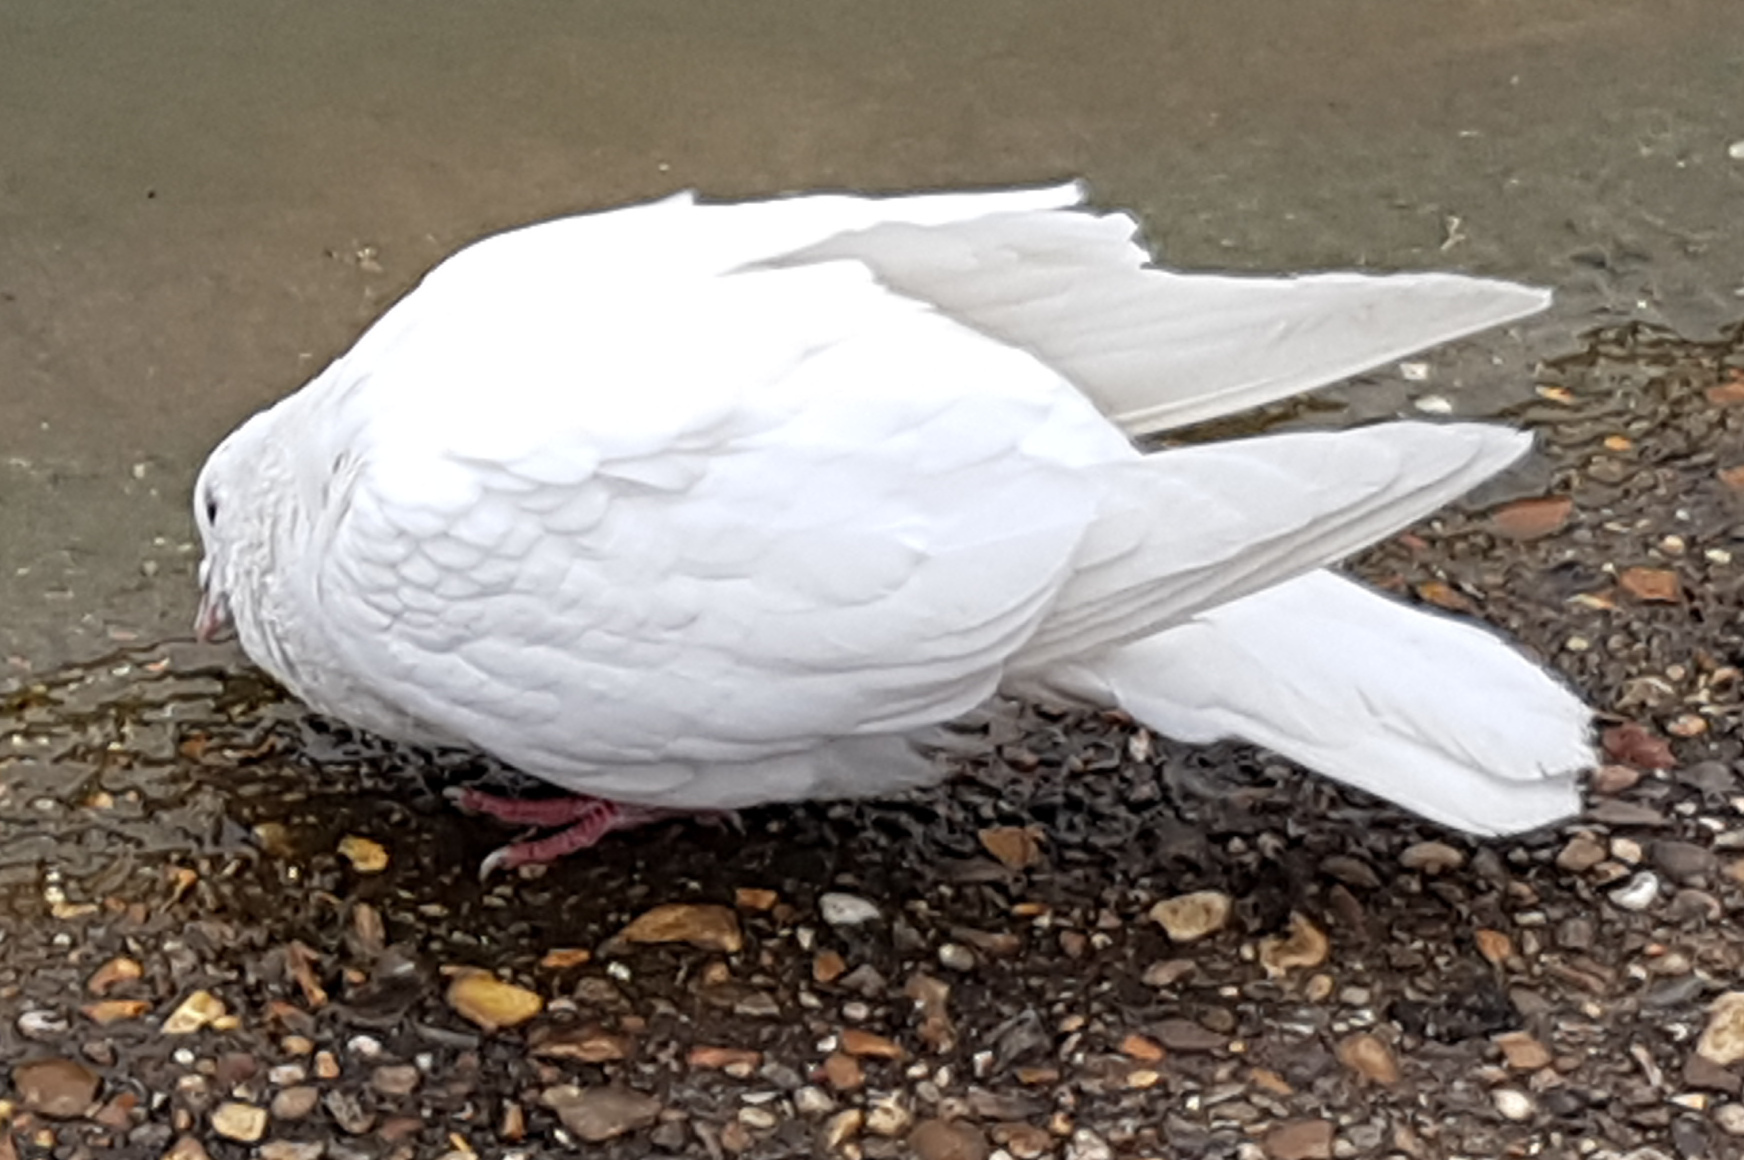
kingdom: Animalia
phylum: Chordata
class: Aves
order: Columbiformes
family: Columbidae
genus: Columba
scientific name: Columba livia
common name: Rock pigeon
